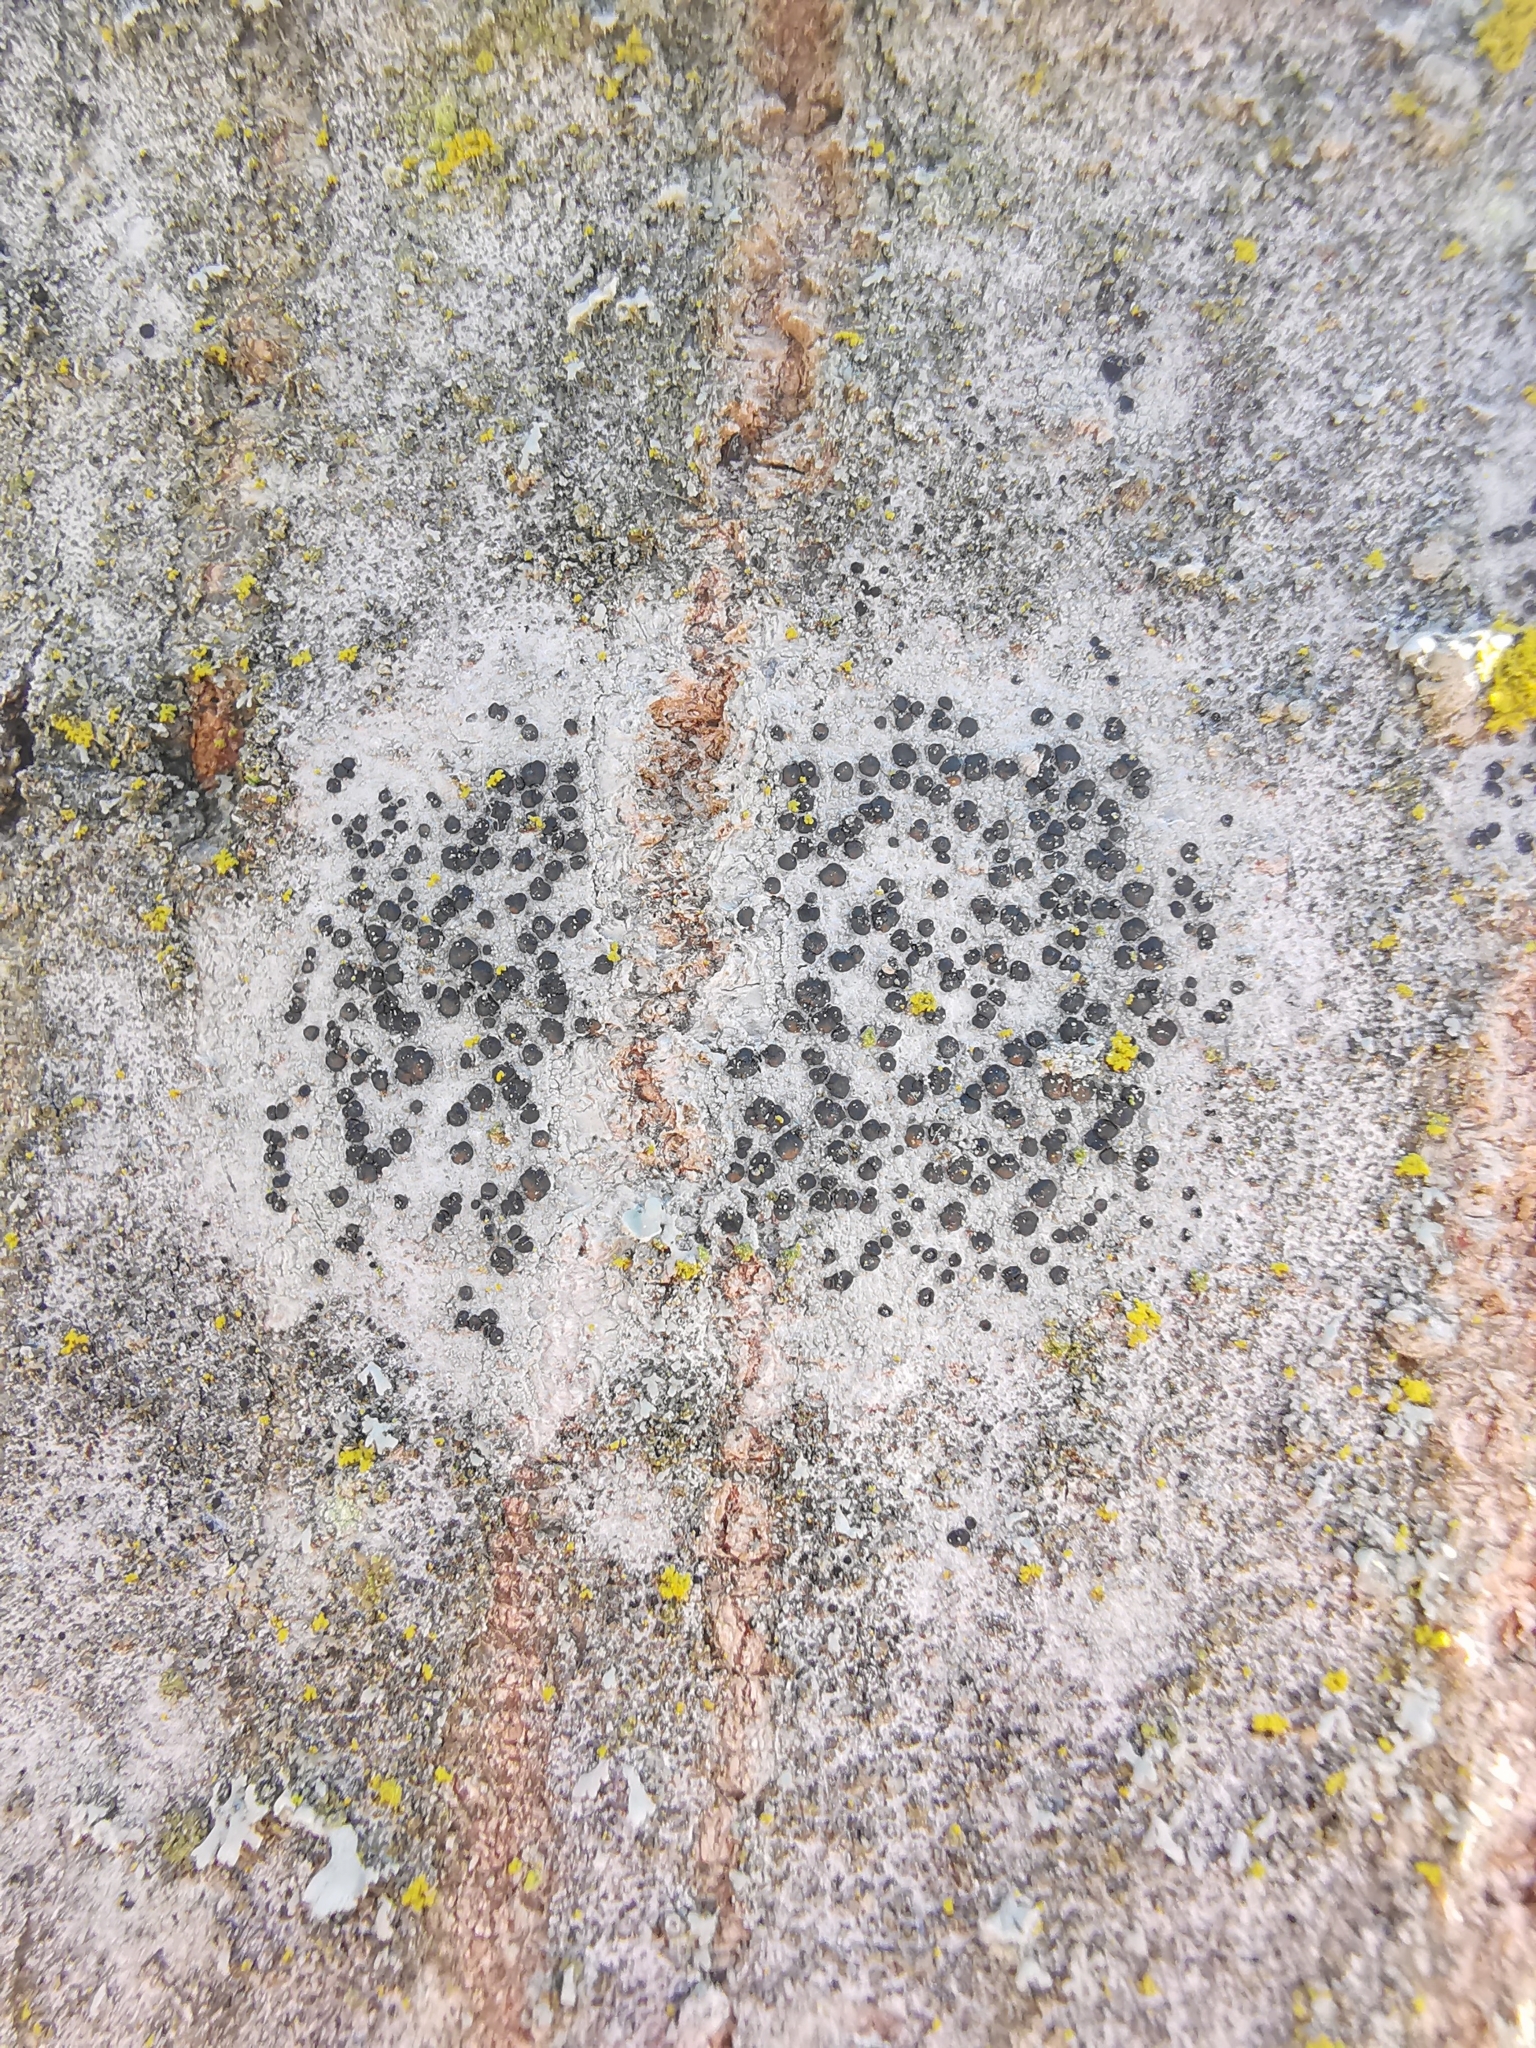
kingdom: Fungi
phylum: Ascomycota
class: Lecanoromycetes
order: Lecanorales
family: Lecanoraceae
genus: Lecidella
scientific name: Lecidella elaeochroma
